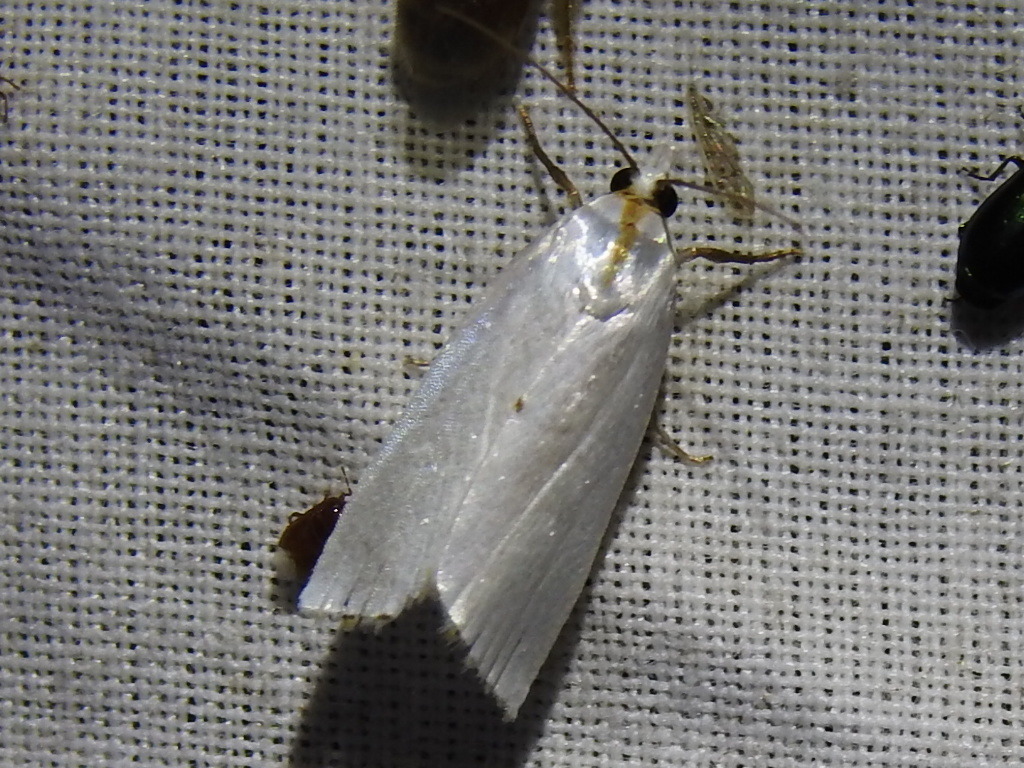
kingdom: Animalia
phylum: Arthropoda
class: Insecta
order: Lepidoptera
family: Crambidae
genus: Argyria
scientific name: Argyria nivalis
